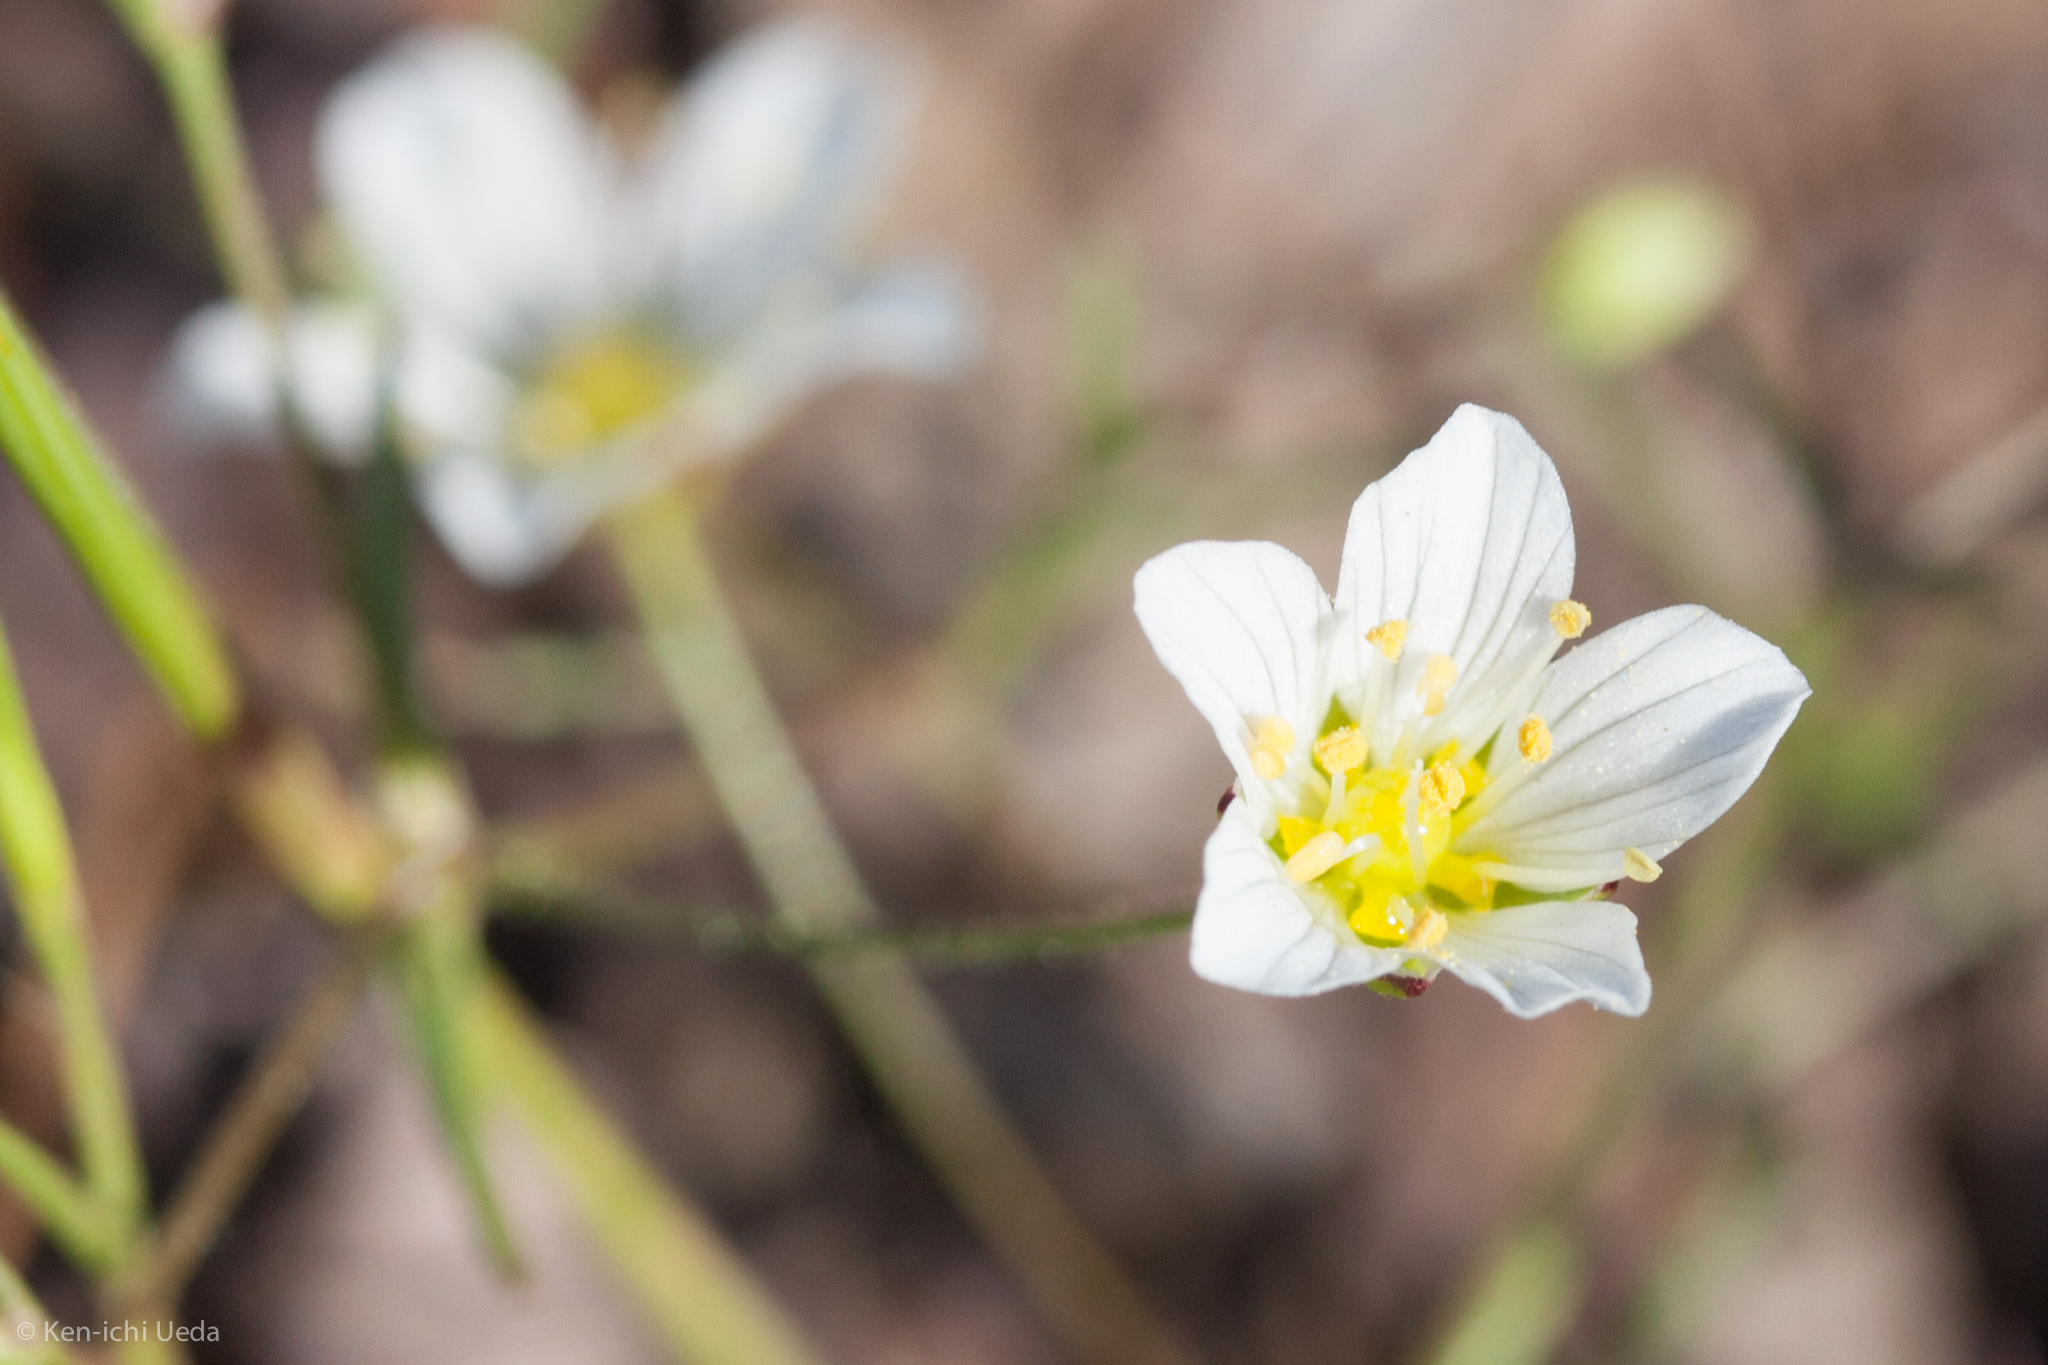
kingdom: Plantae
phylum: Tracheophyta
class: Magnoliopsida
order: Caryophyllales
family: Caryophyllaceae
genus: Sabulina
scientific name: Sabulina douglasii
